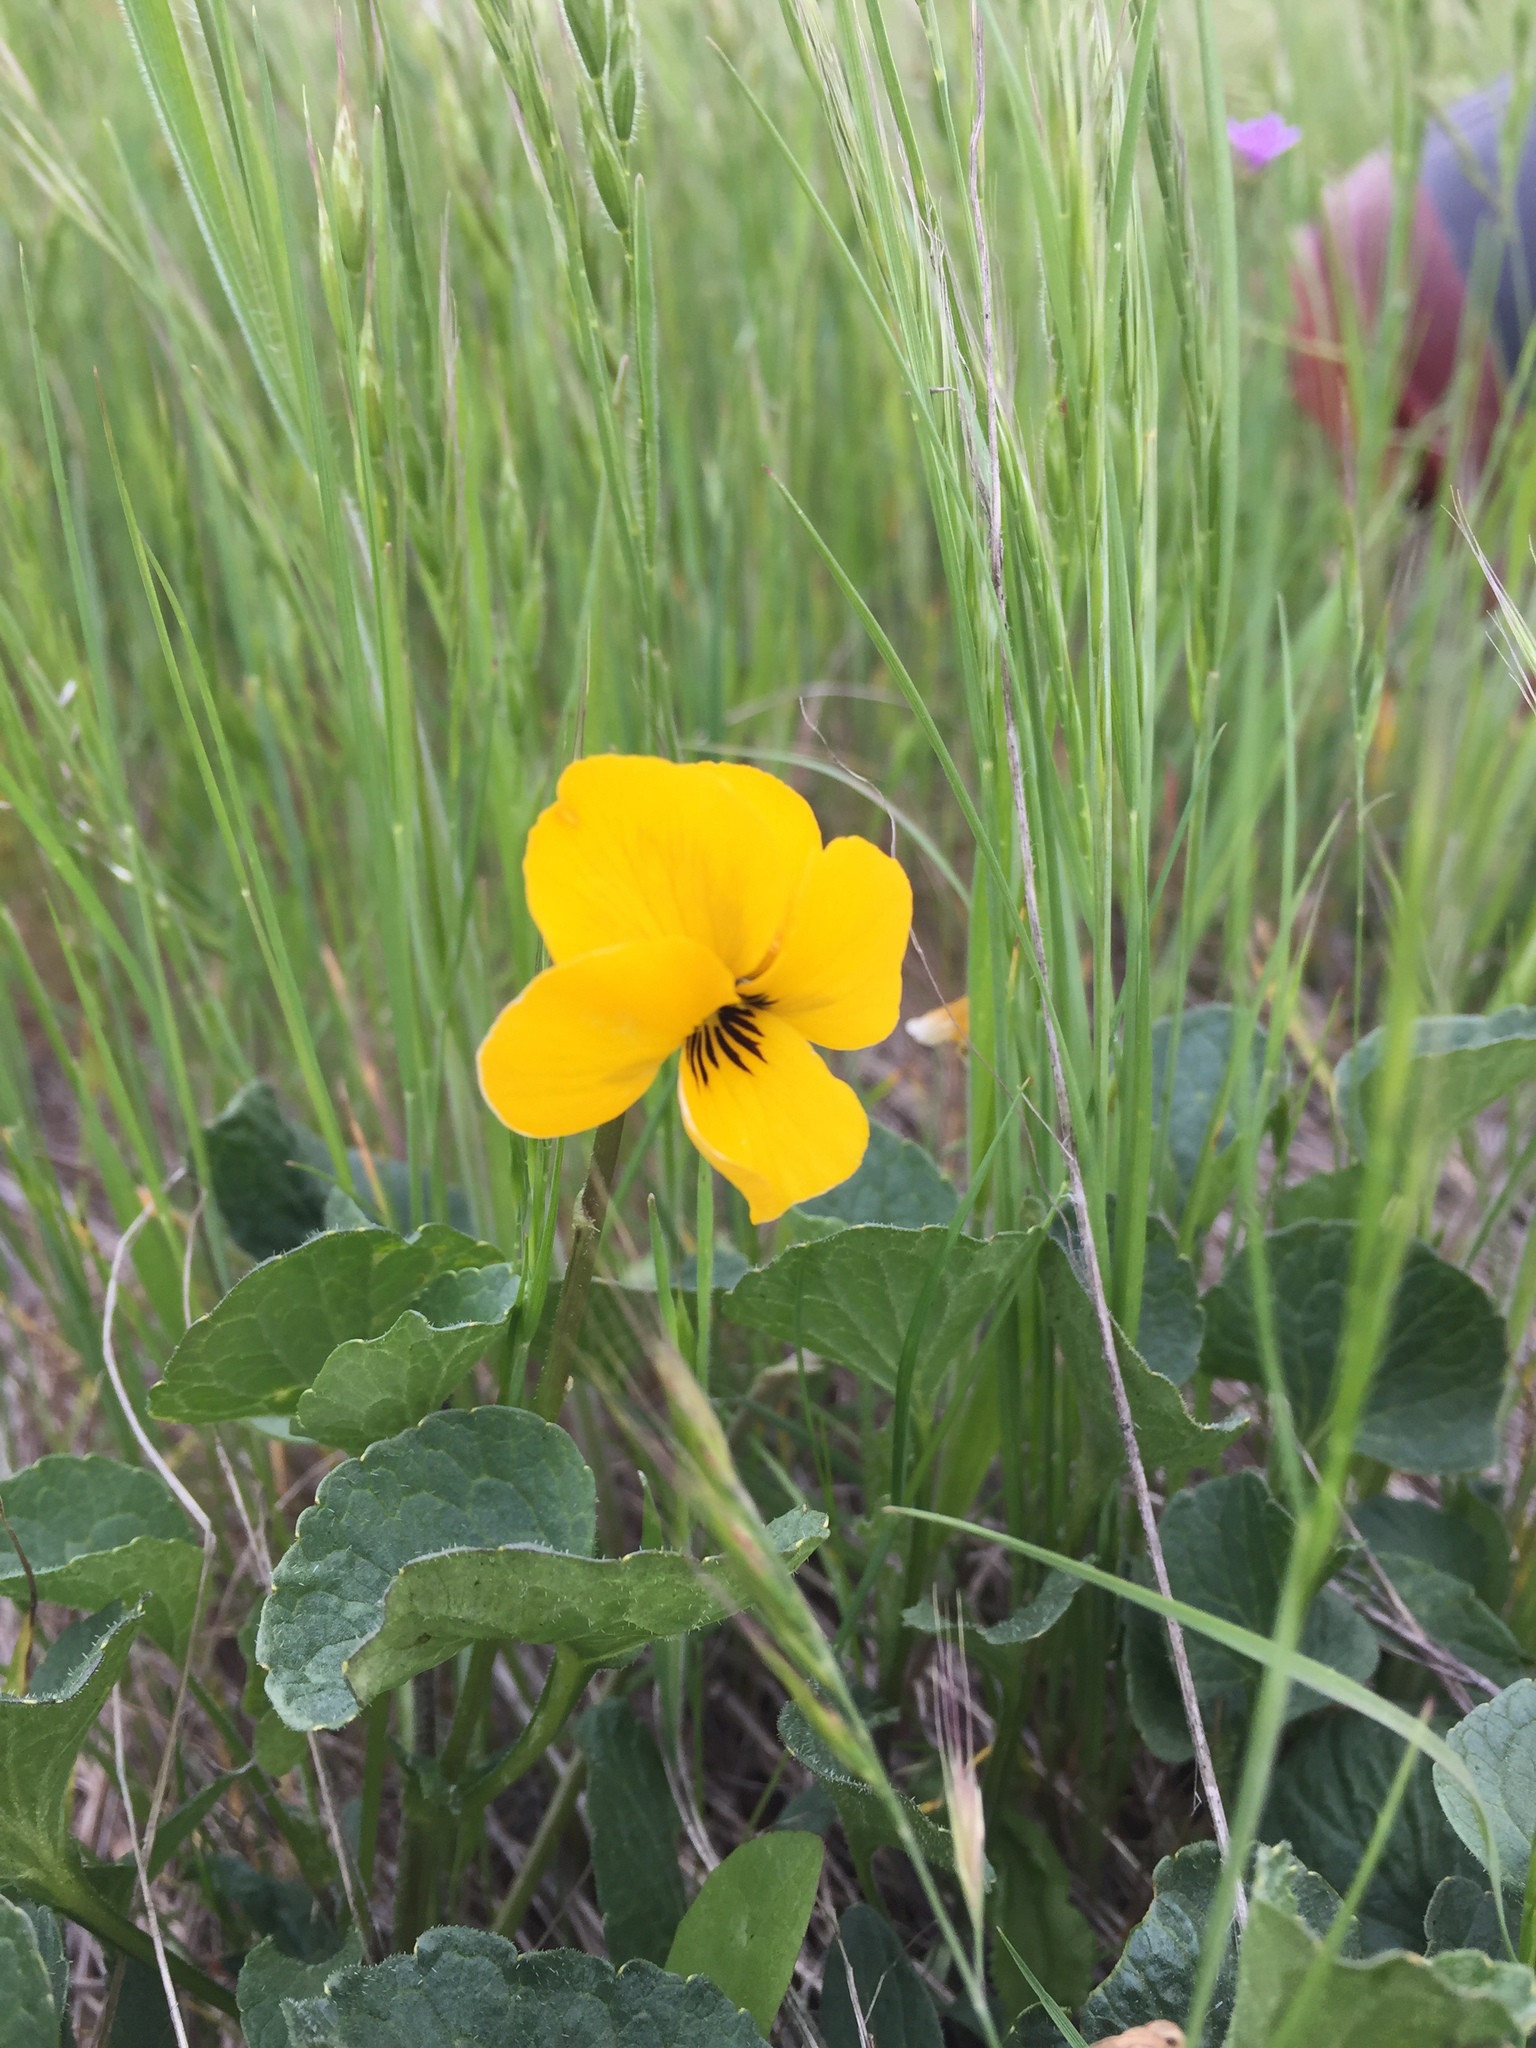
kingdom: Plantae
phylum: Tracheophyta
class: Magnoliopsida
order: Malpighiales
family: Violaceae
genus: Viola
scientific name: Viola pedunculata
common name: California golden violet
